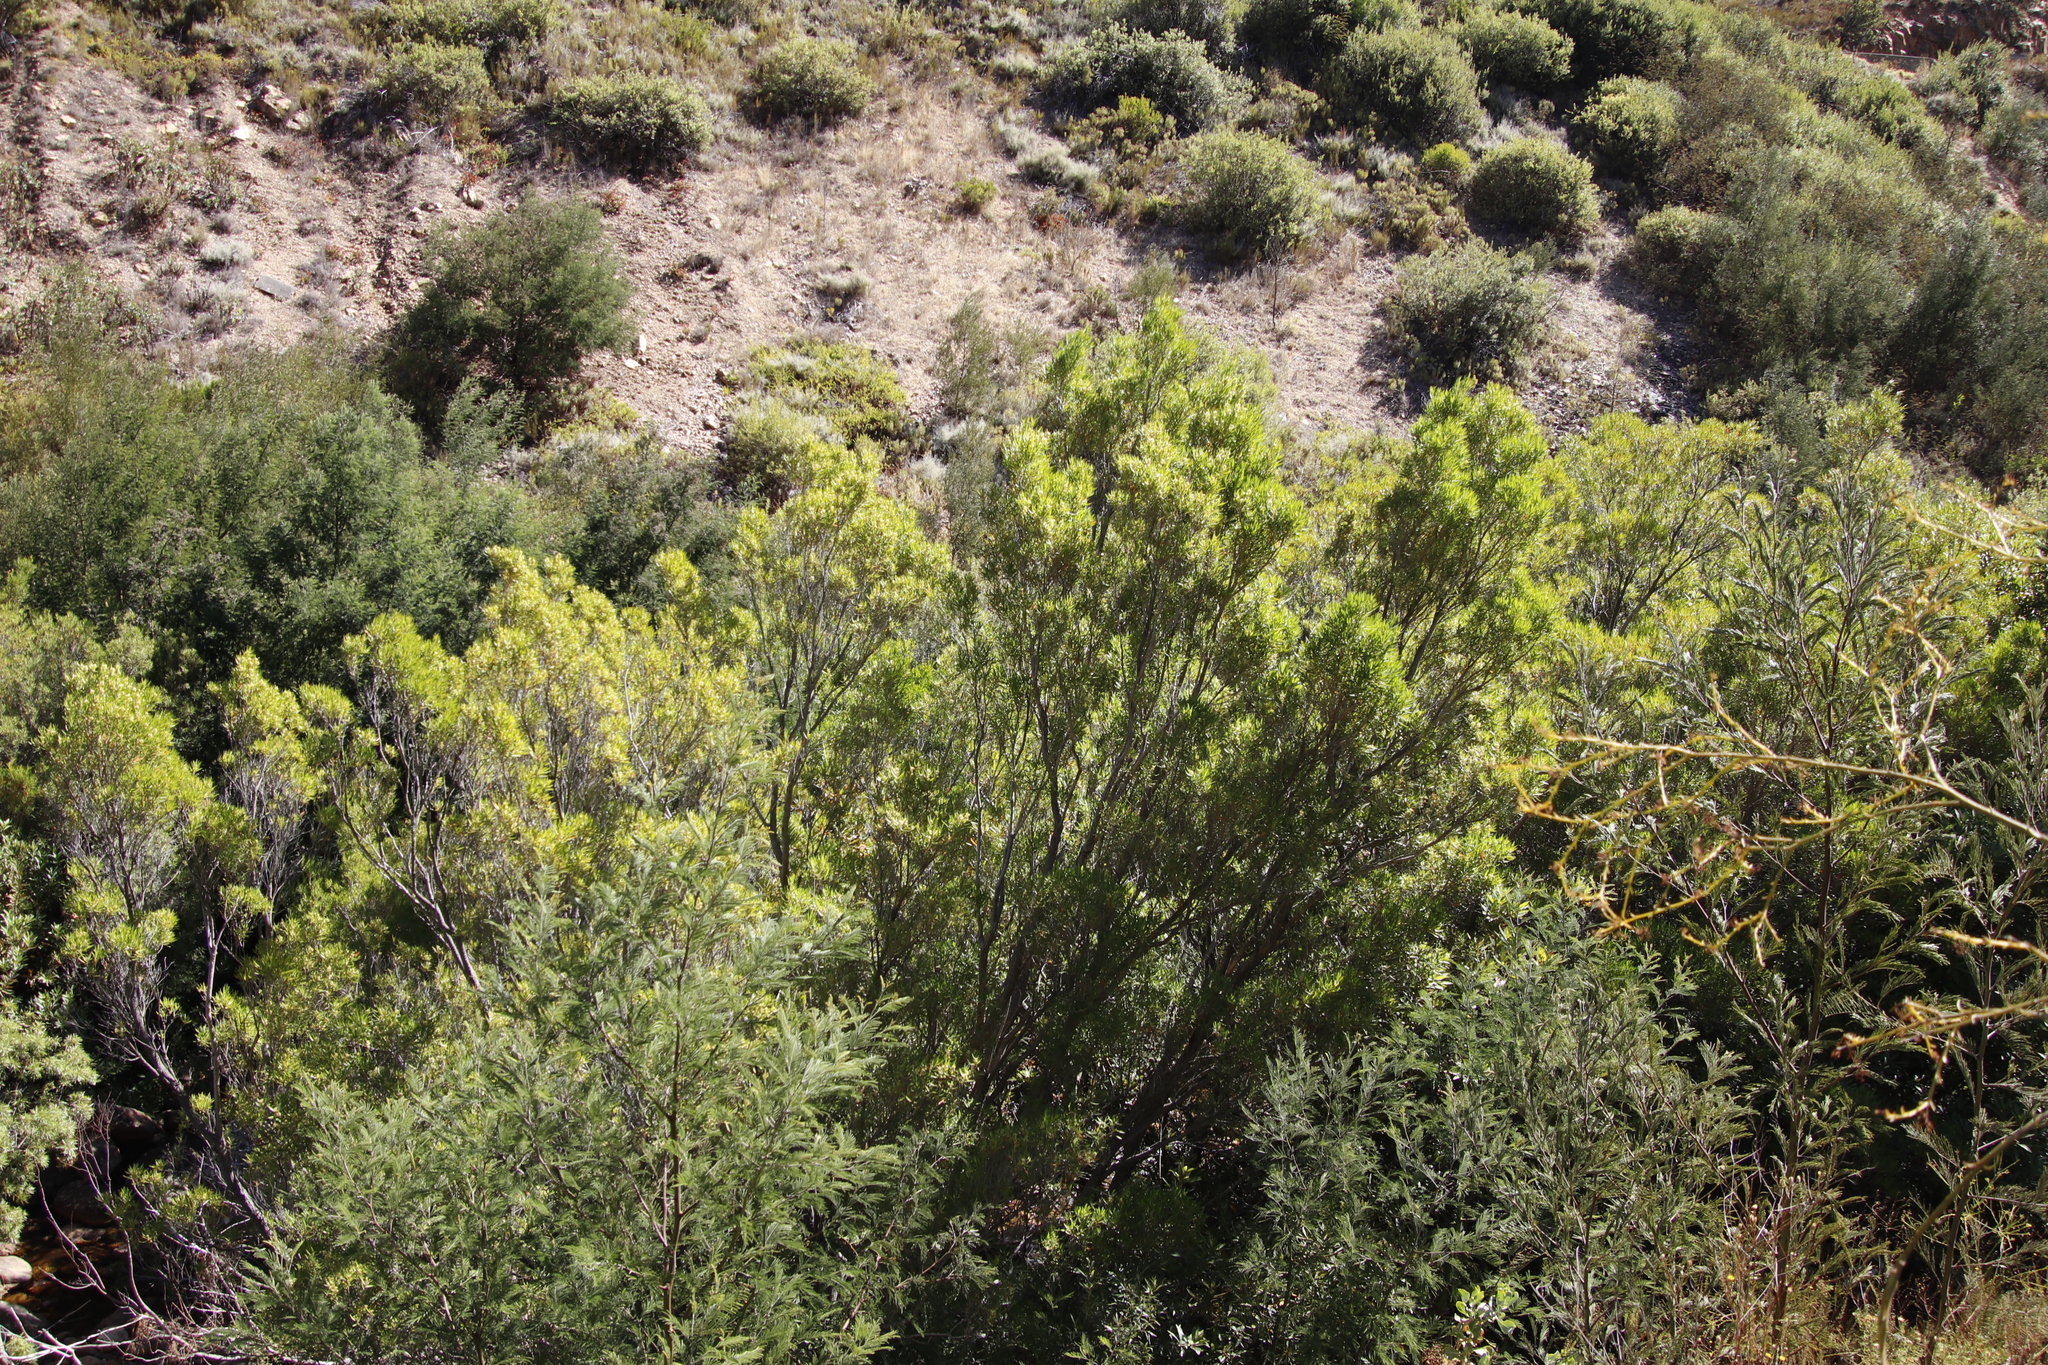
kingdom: Plantae
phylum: Tracheophyta
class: Magnoliopsida
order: Myrtales
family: Myrtaceae
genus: Callistemon
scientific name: Callistemon lanceolatus
